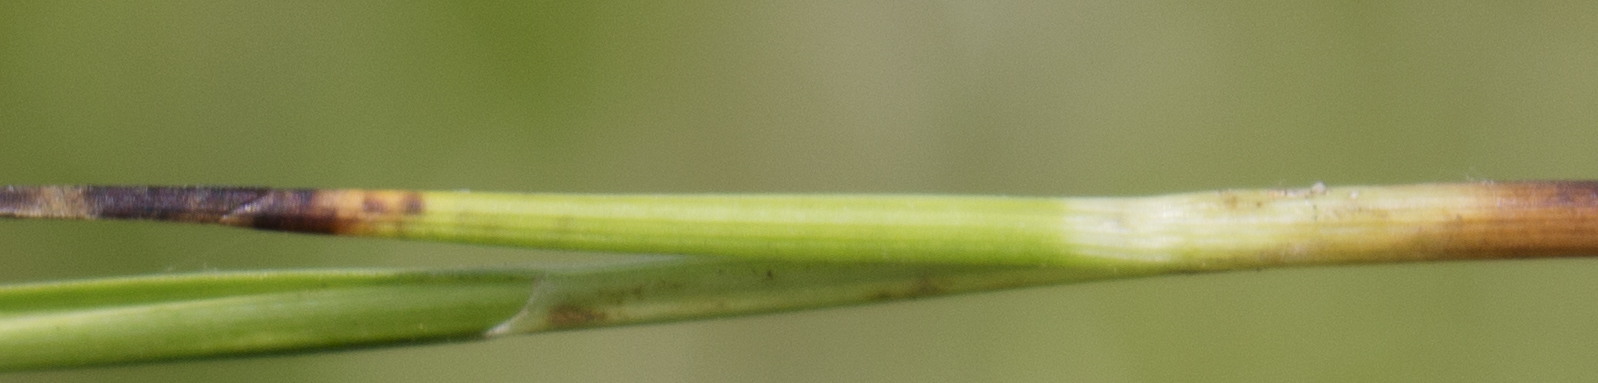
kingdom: Plantae
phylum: Tracheophyta
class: Liliopsida
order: Poales
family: Cyperaceae
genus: Carex
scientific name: Carex diandra
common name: Lesser tussock-sedge
